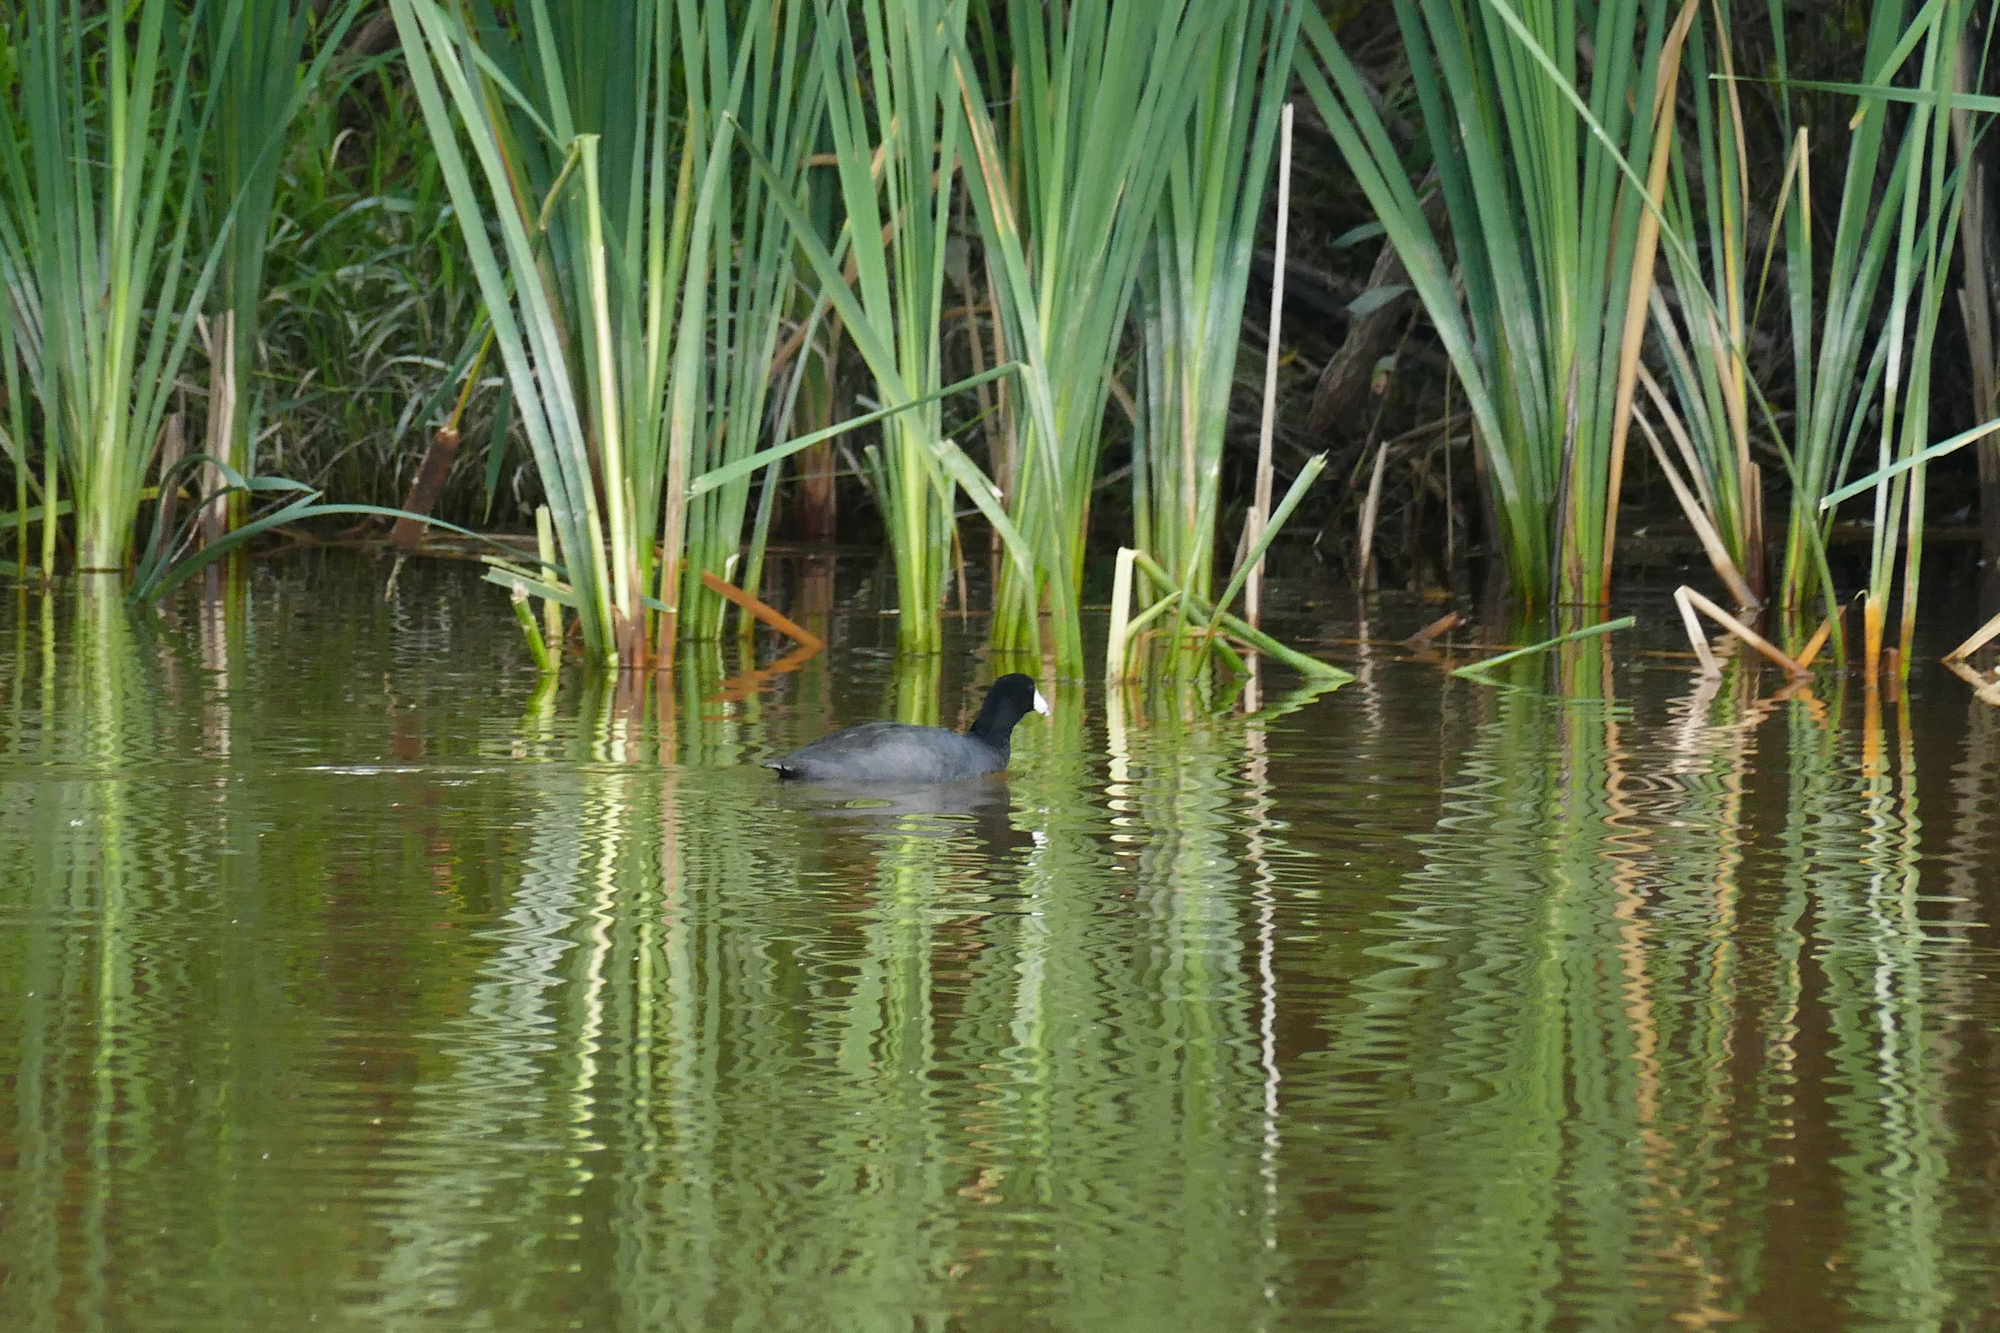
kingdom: Animalia
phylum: Chordata
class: Aves
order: Gruiformes
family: Rallidae
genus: Fulica
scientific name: Fulica americana
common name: American coot
